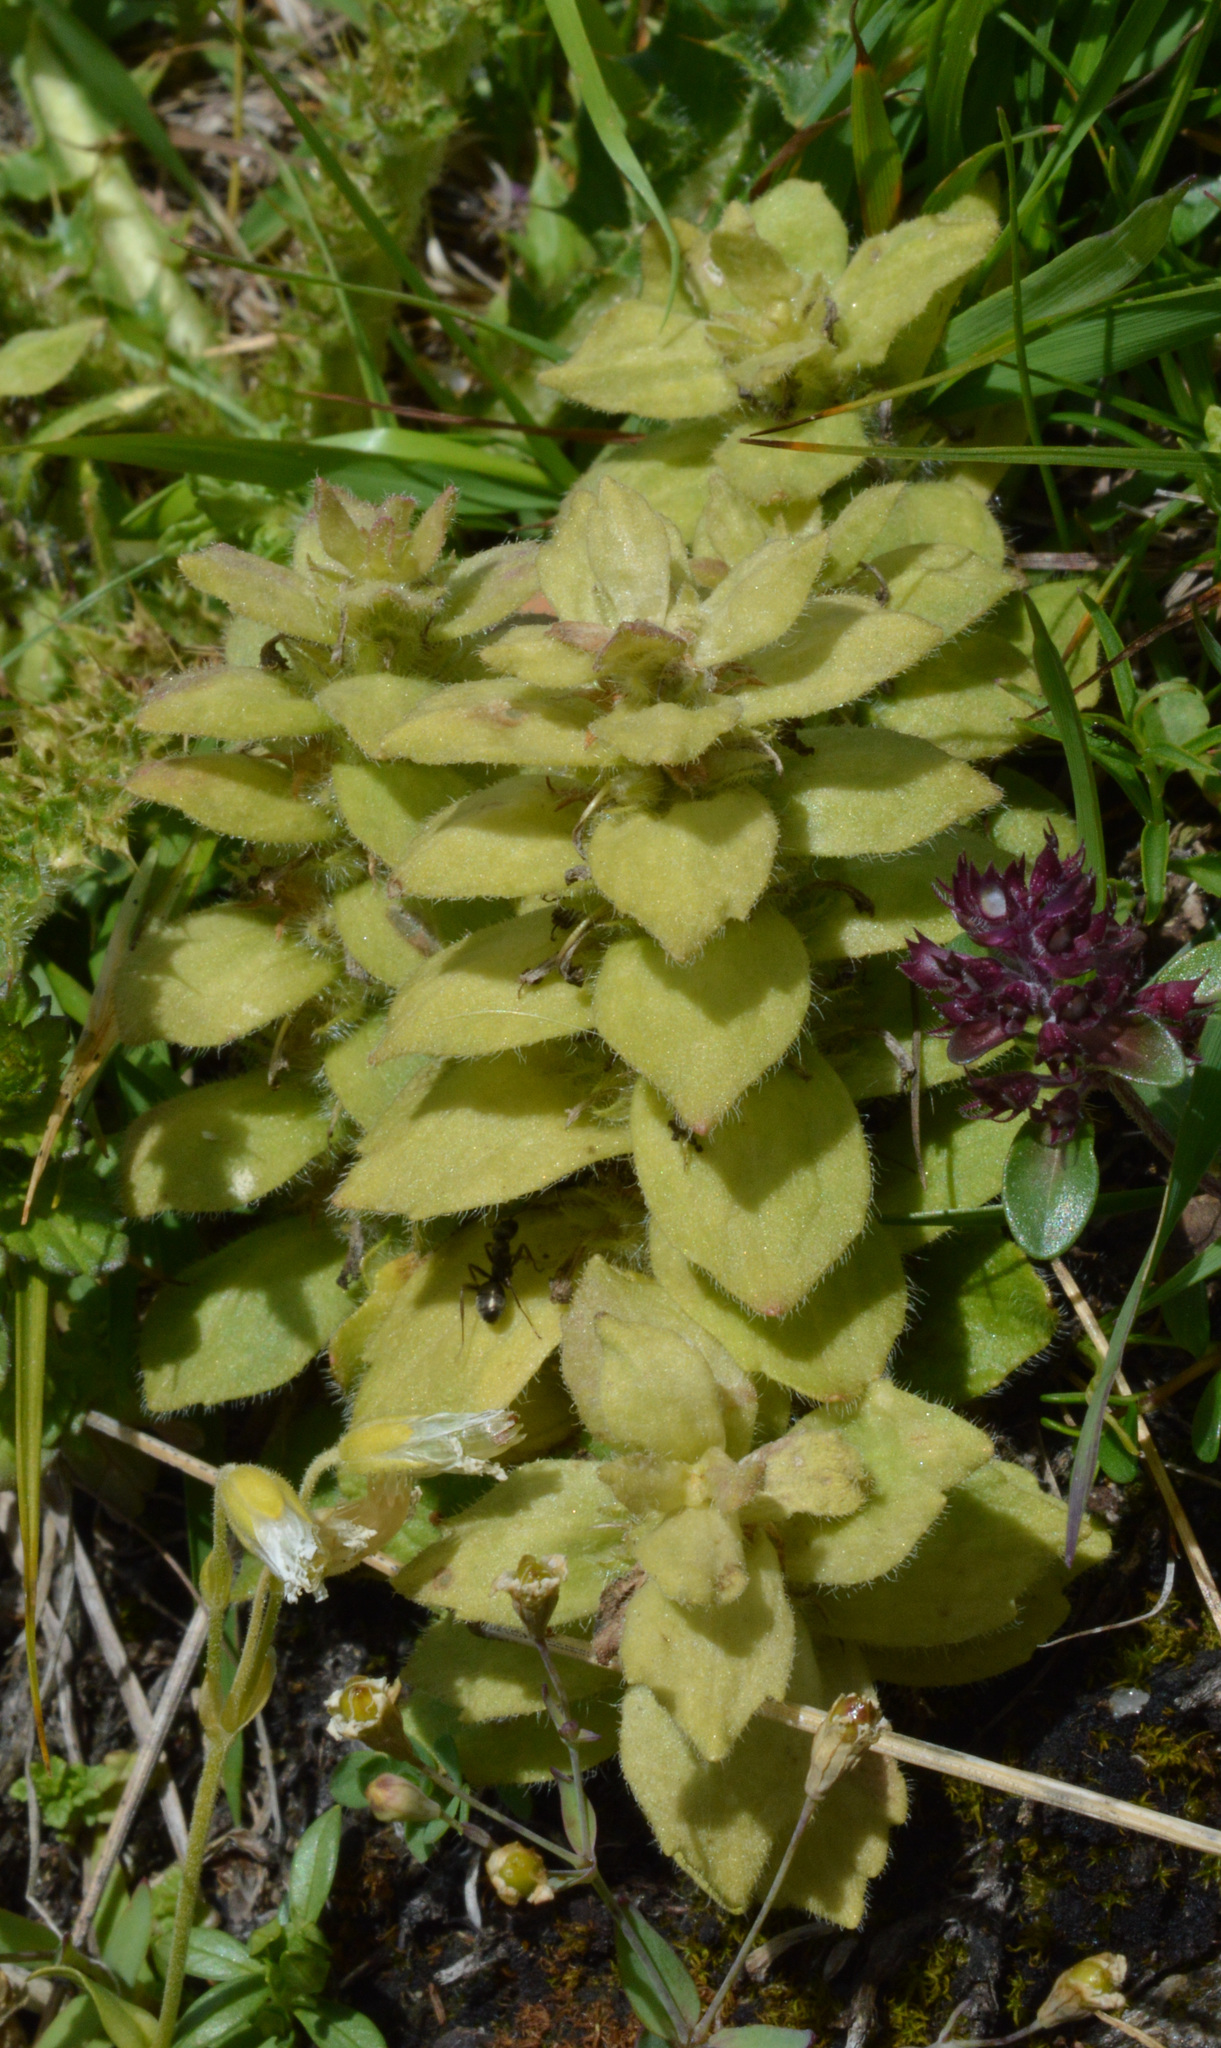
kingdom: Plantae
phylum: Tracheophyta
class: Magnoliopsida
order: Lamiales
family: Lamiaceae
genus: Ajuga
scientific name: Ajuga pyramidalis
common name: Pyramid bugle
